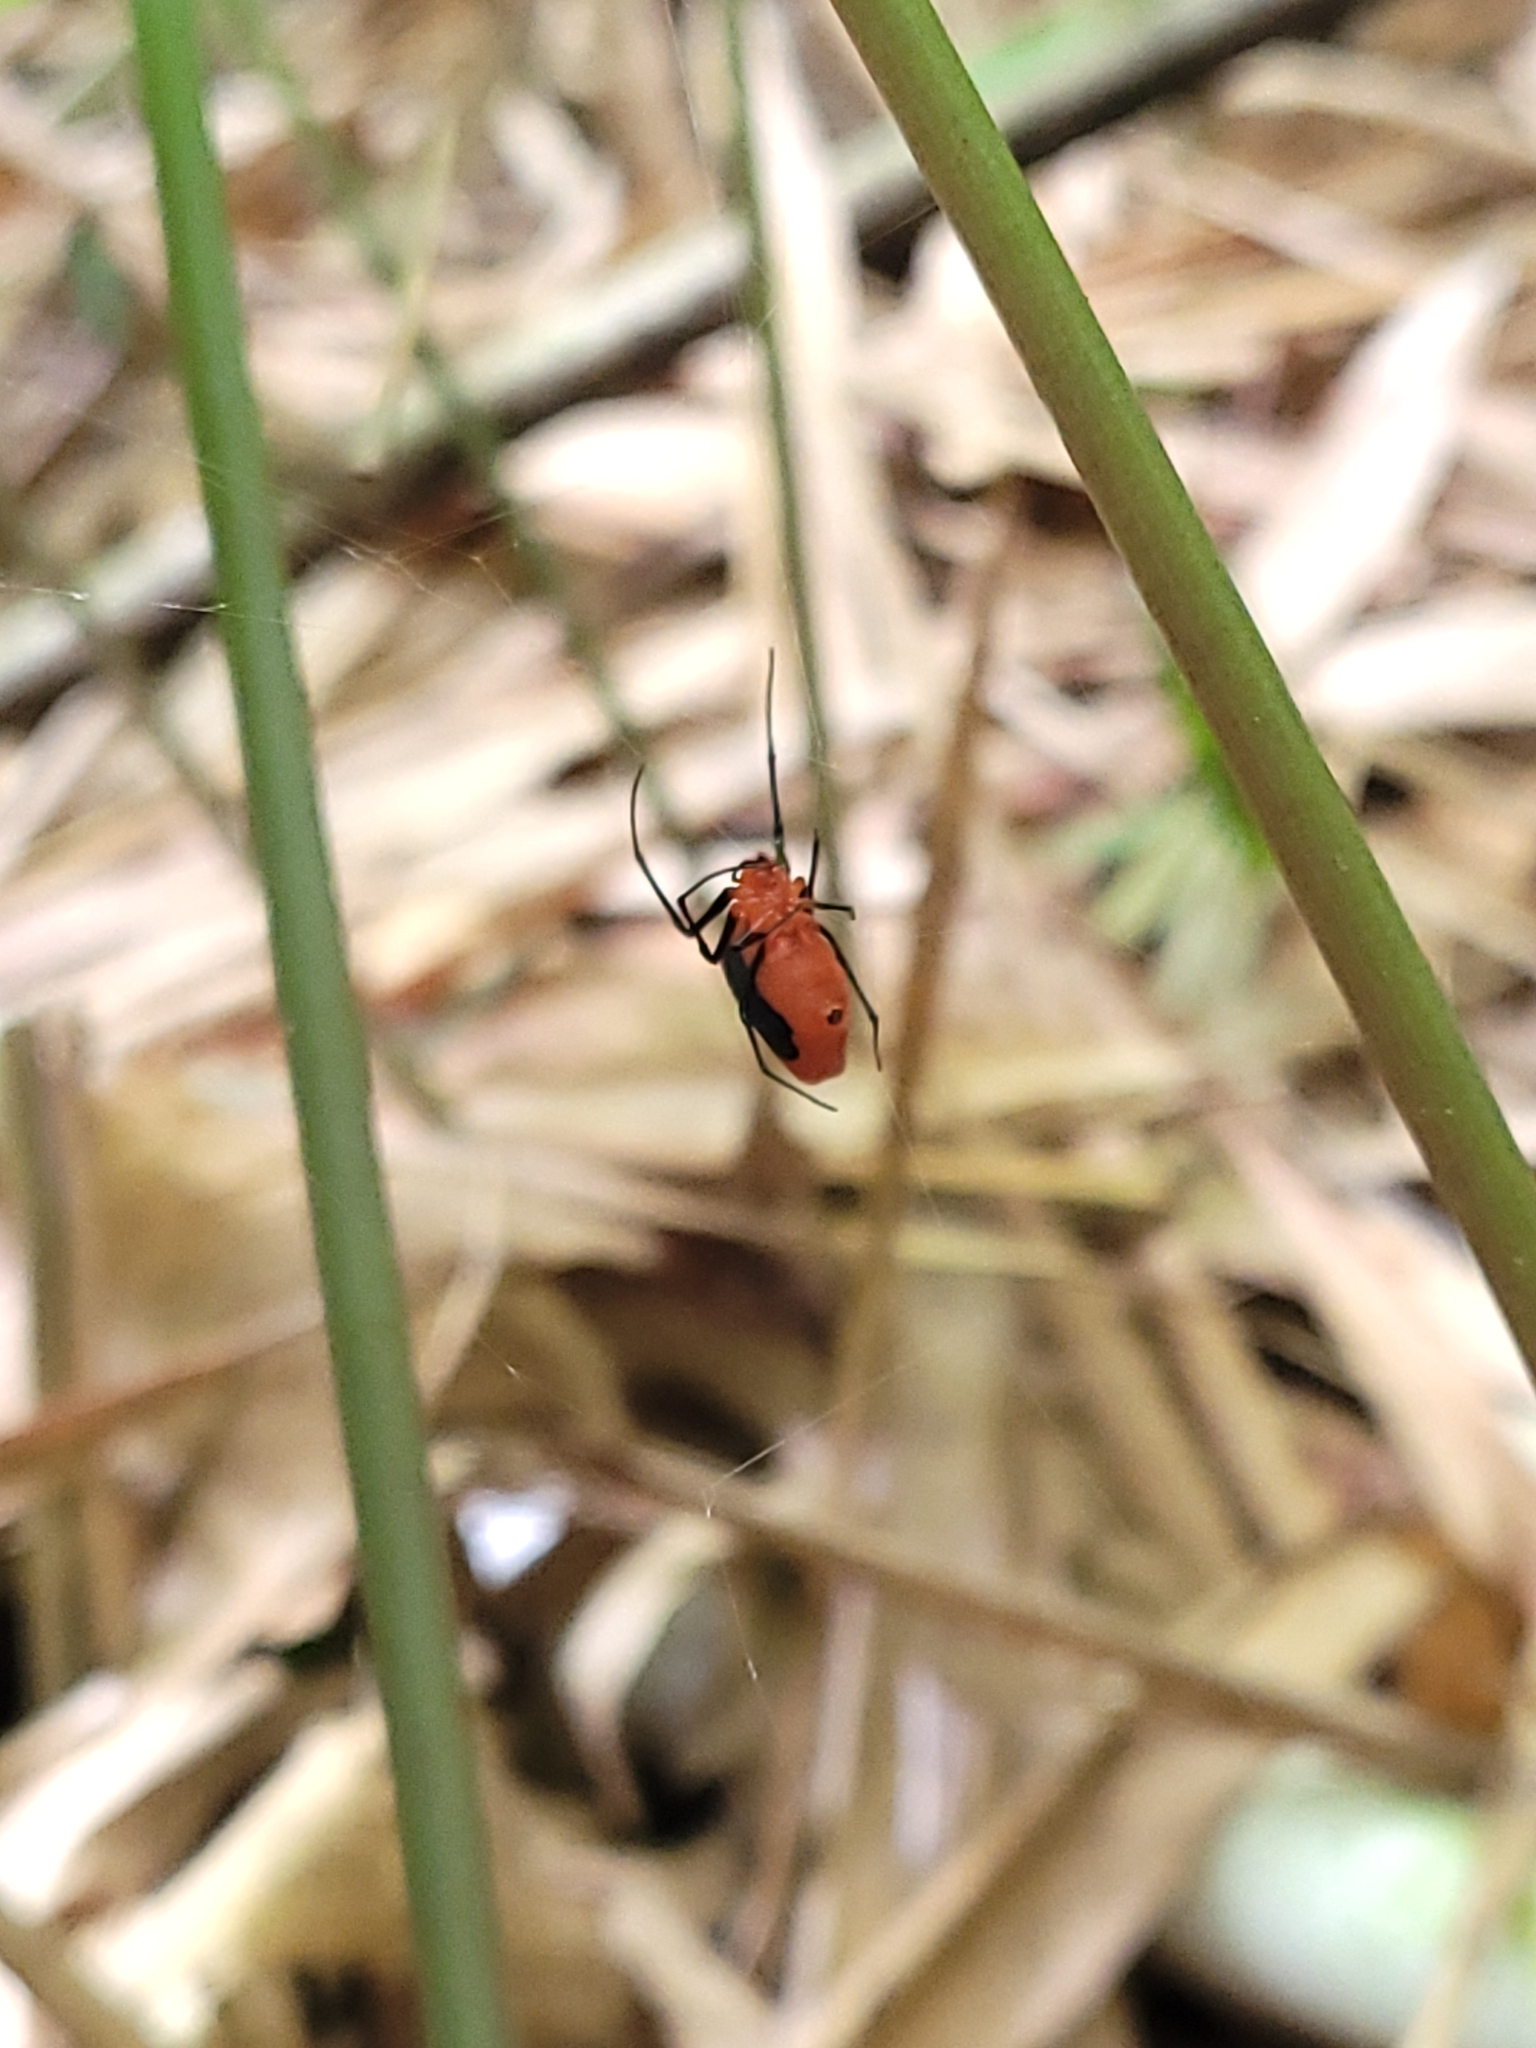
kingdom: Animalia
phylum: Arthropoda
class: Arachnida
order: Araneae
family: Tetragnathidae
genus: Leucauge
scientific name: Leucauge licina
